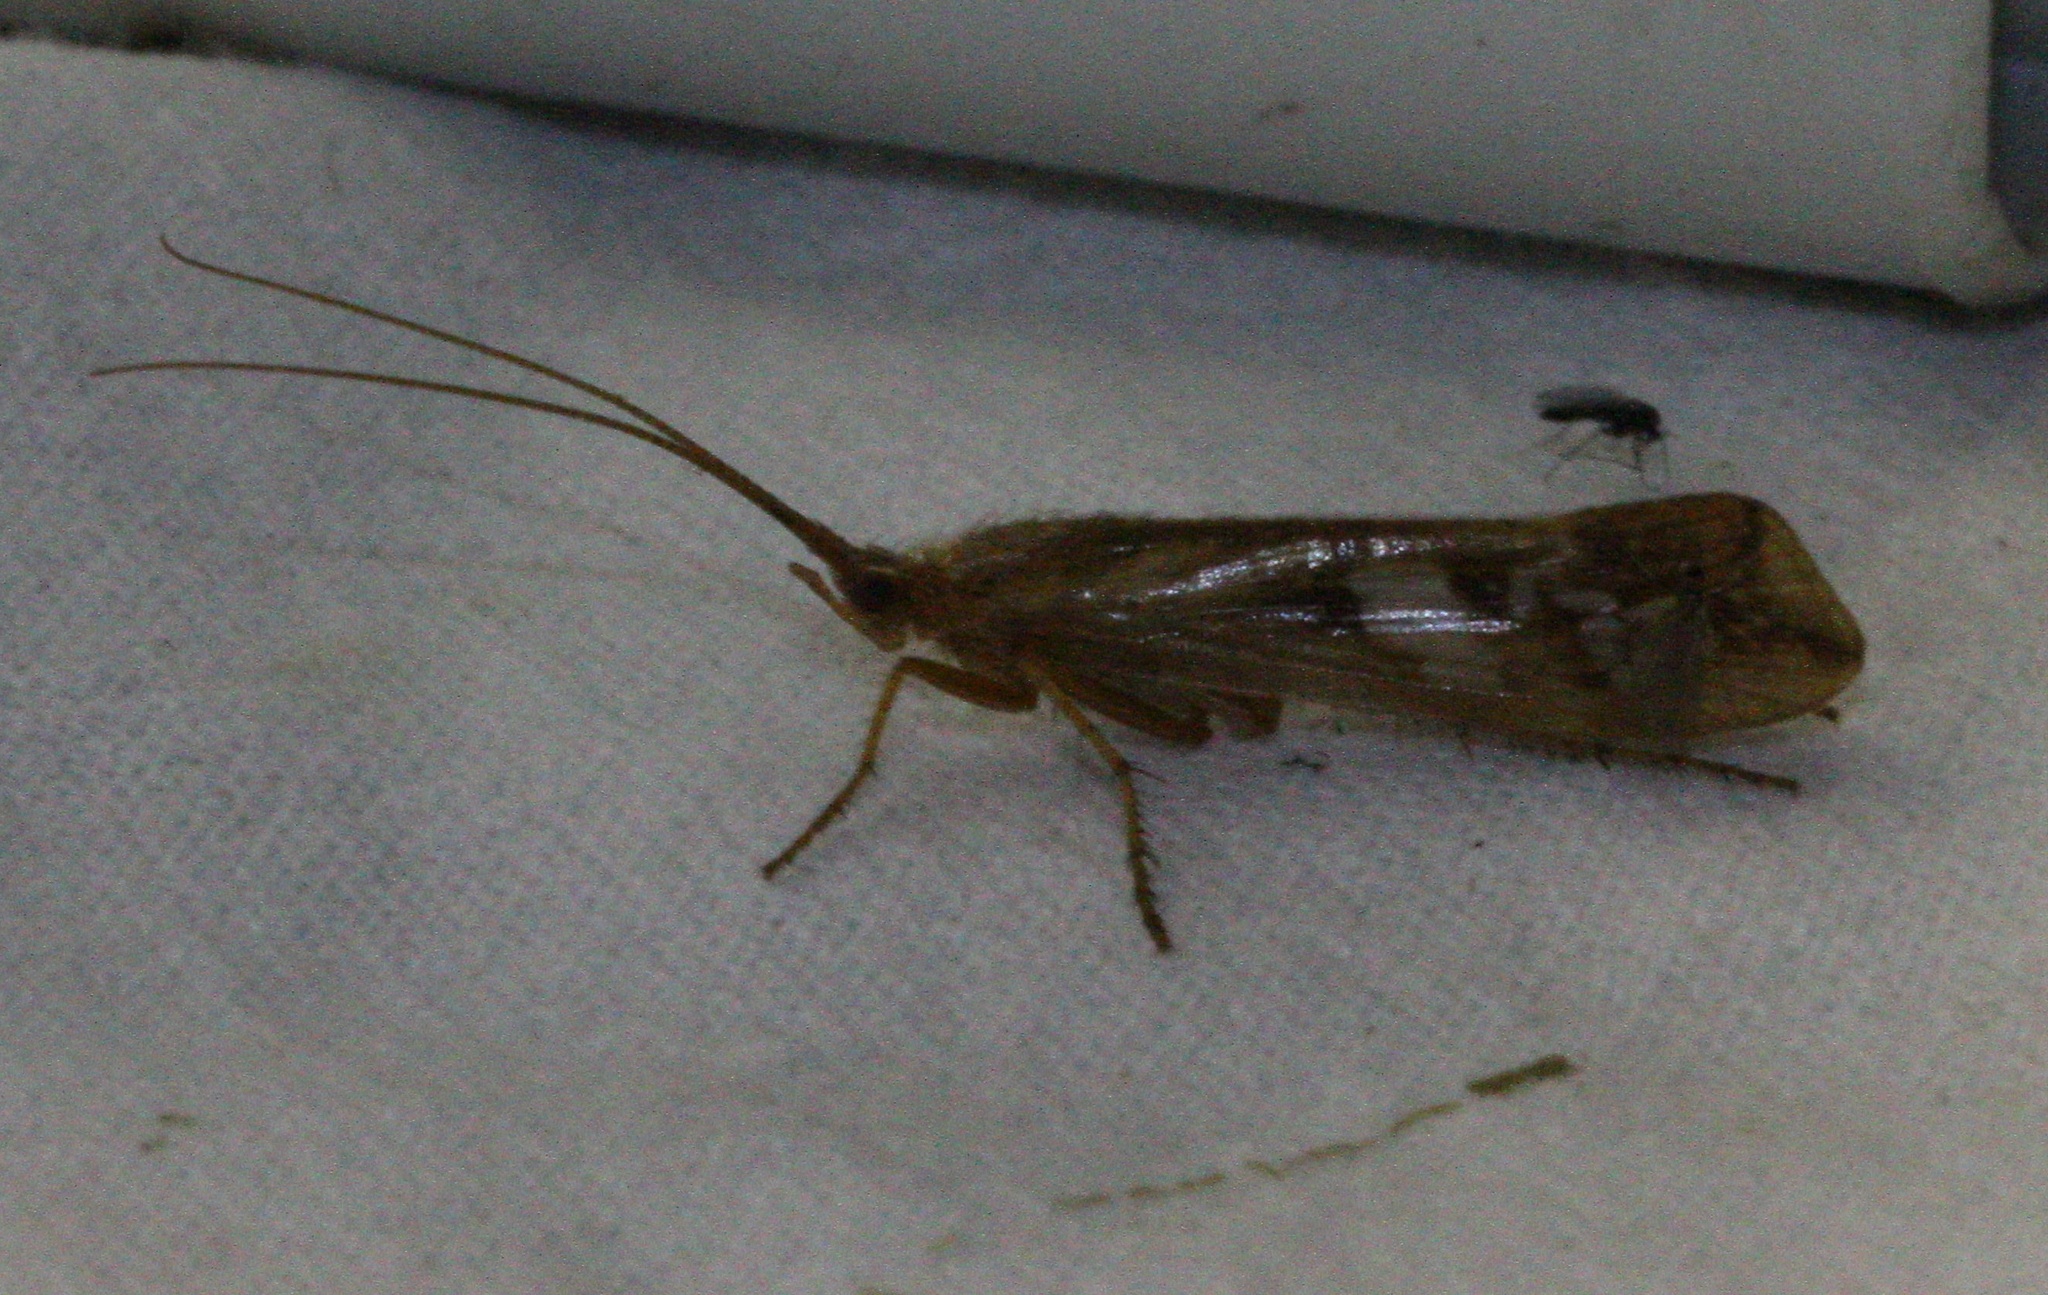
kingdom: Animalia
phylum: Arthropoda
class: Insecta
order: Trichoptera
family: Limnephilidae
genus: Limnephilus
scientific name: Limnephilus lunatus
